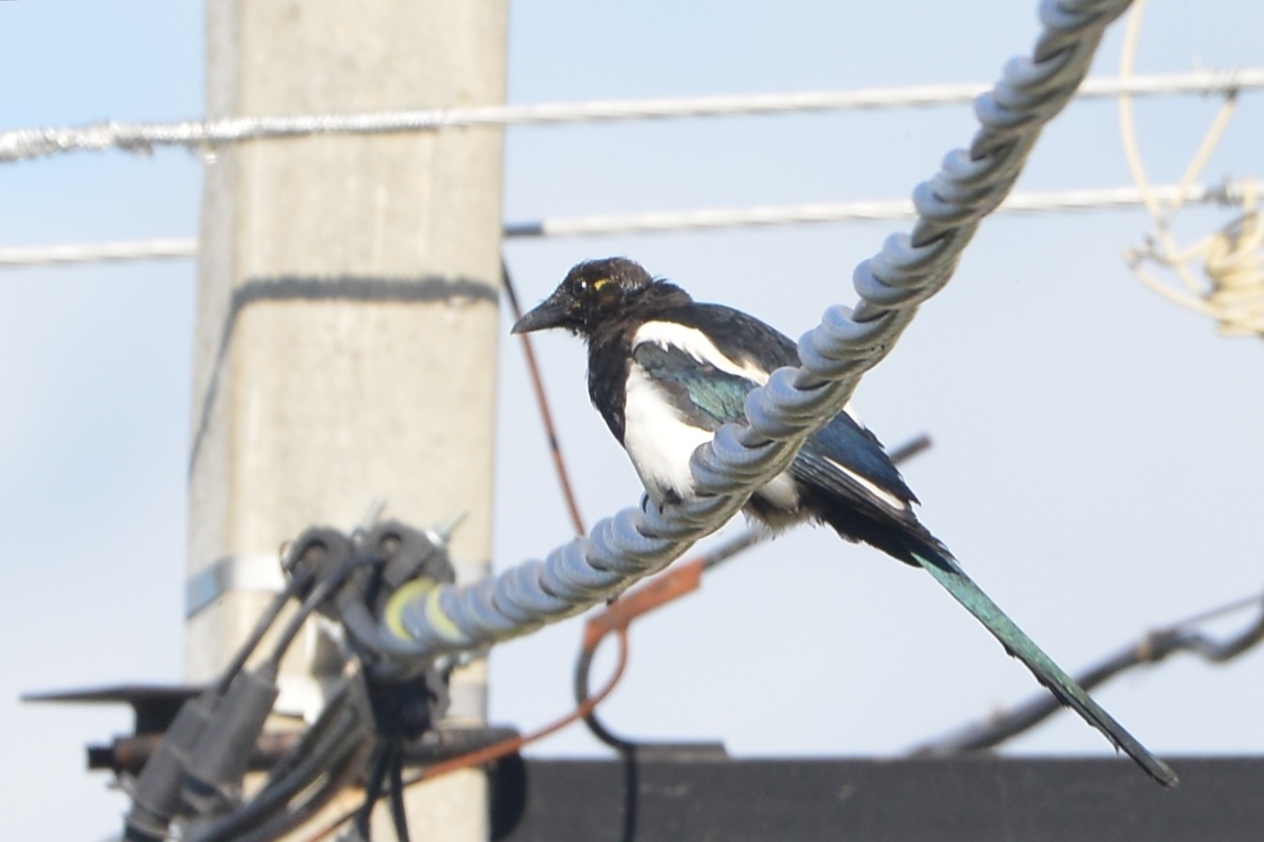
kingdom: Animalia
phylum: Chordata
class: Aves
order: Passeriformes
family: Corvidae
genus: Pica
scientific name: Pica pica
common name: Eurasian magpie
